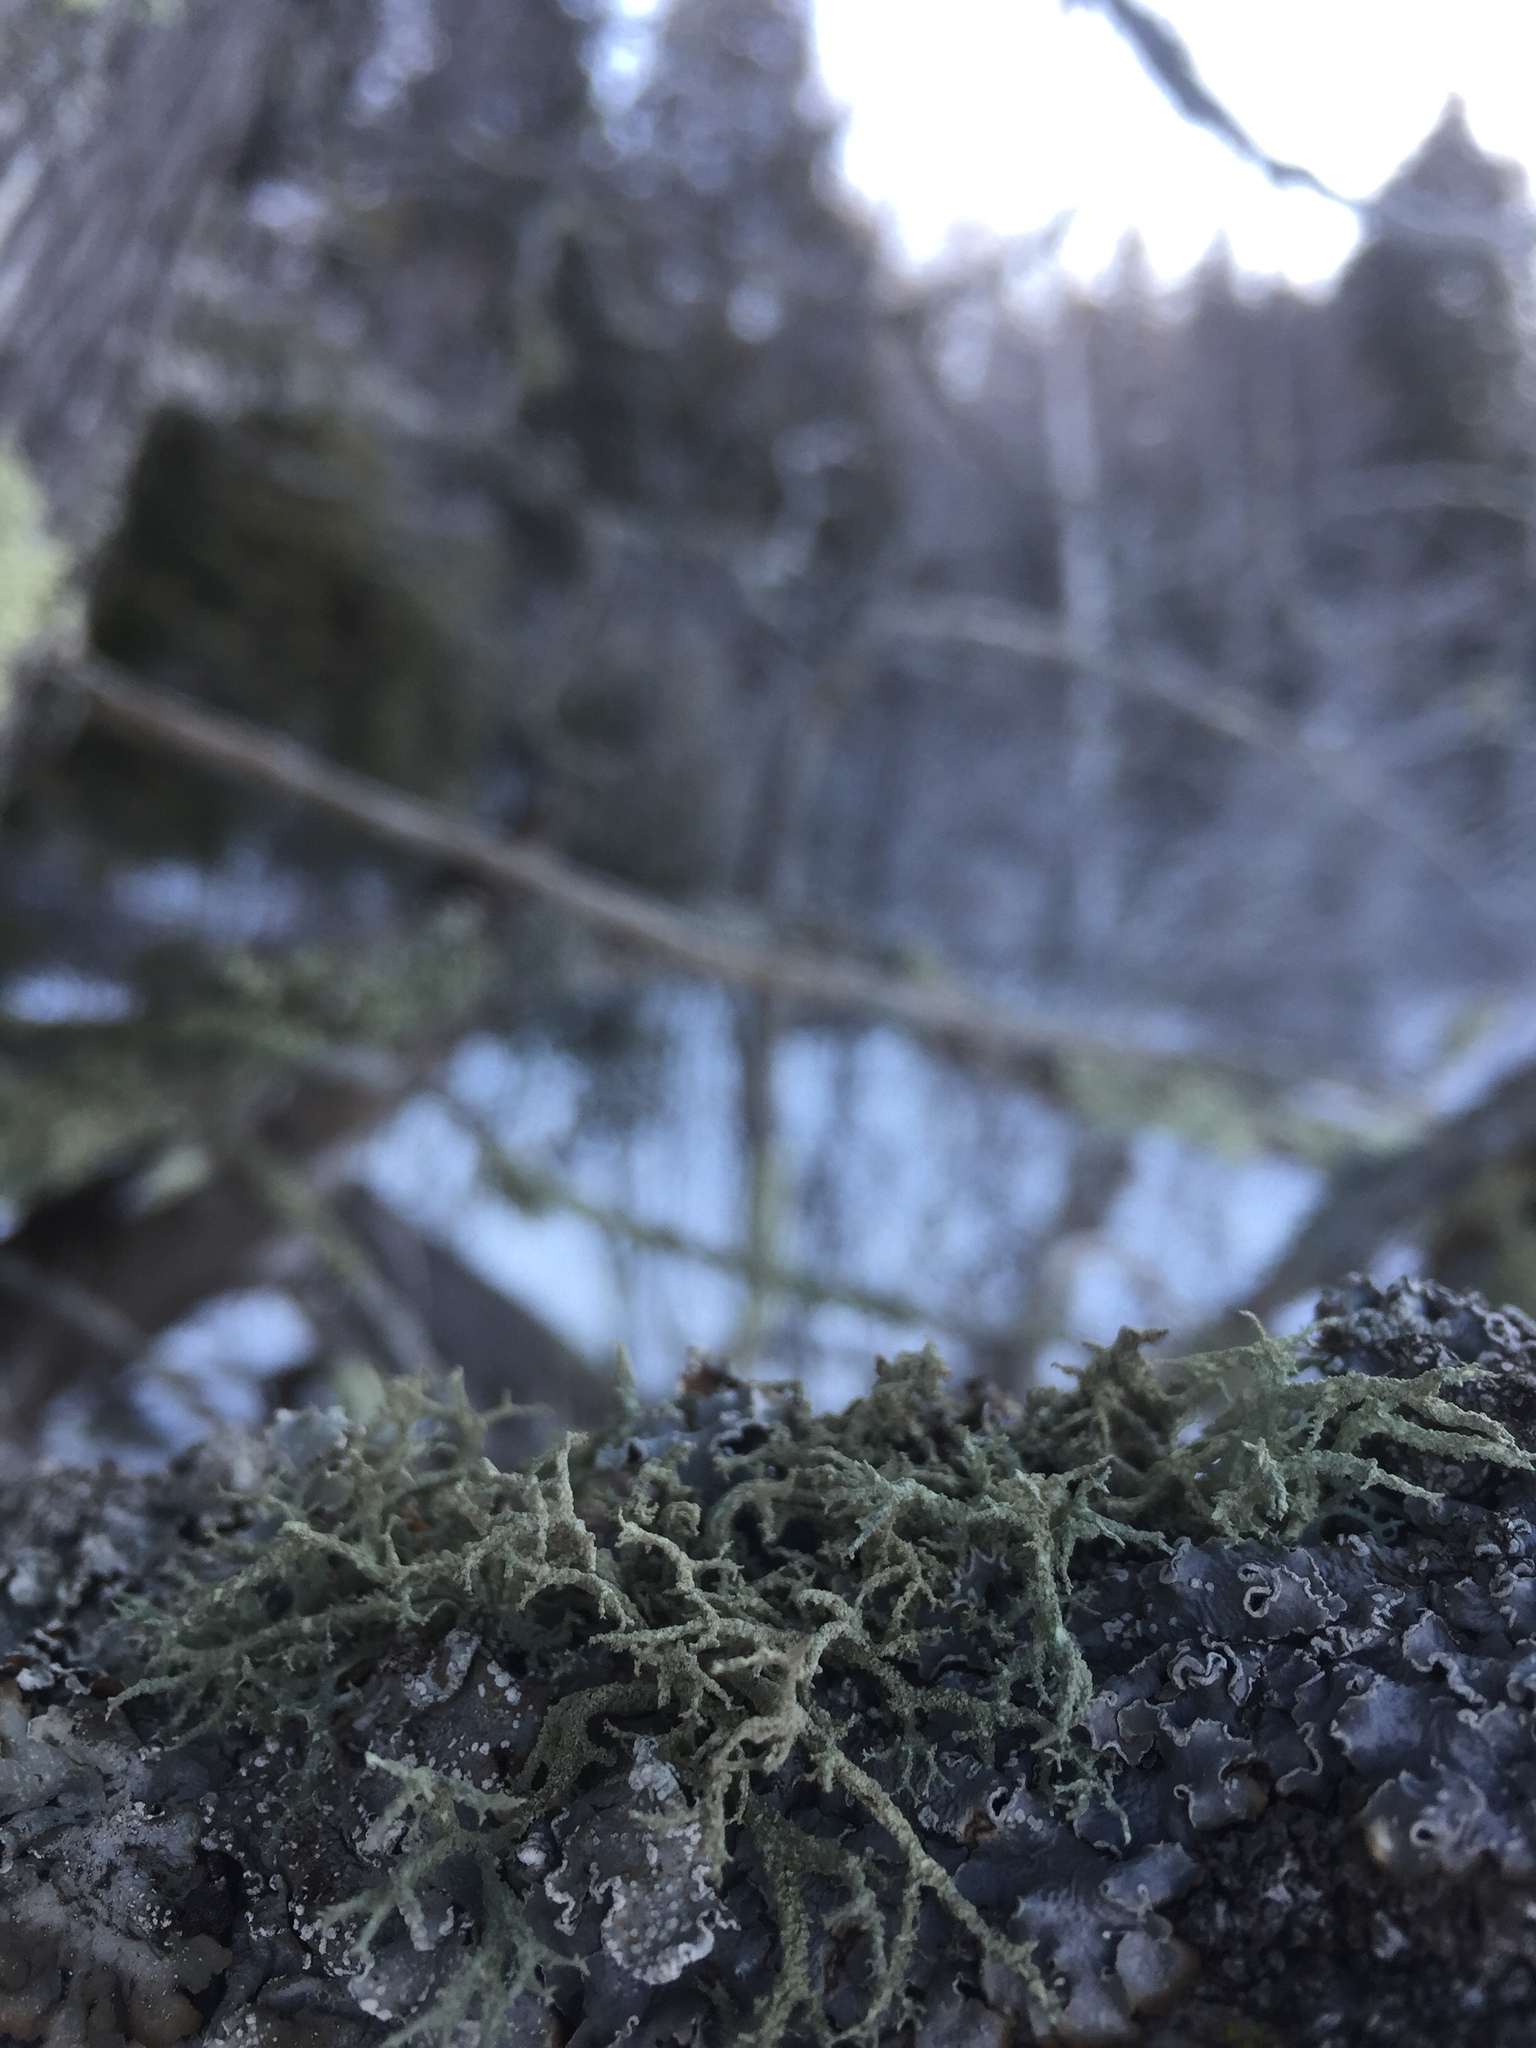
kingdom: Fungi
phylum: Ascomycota
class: Lecanoromycetes
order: Lecanorales
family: Parmeliaceae
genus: Evernia
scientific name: Evernia mesomorpha
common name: Boreal oak moss lichen
